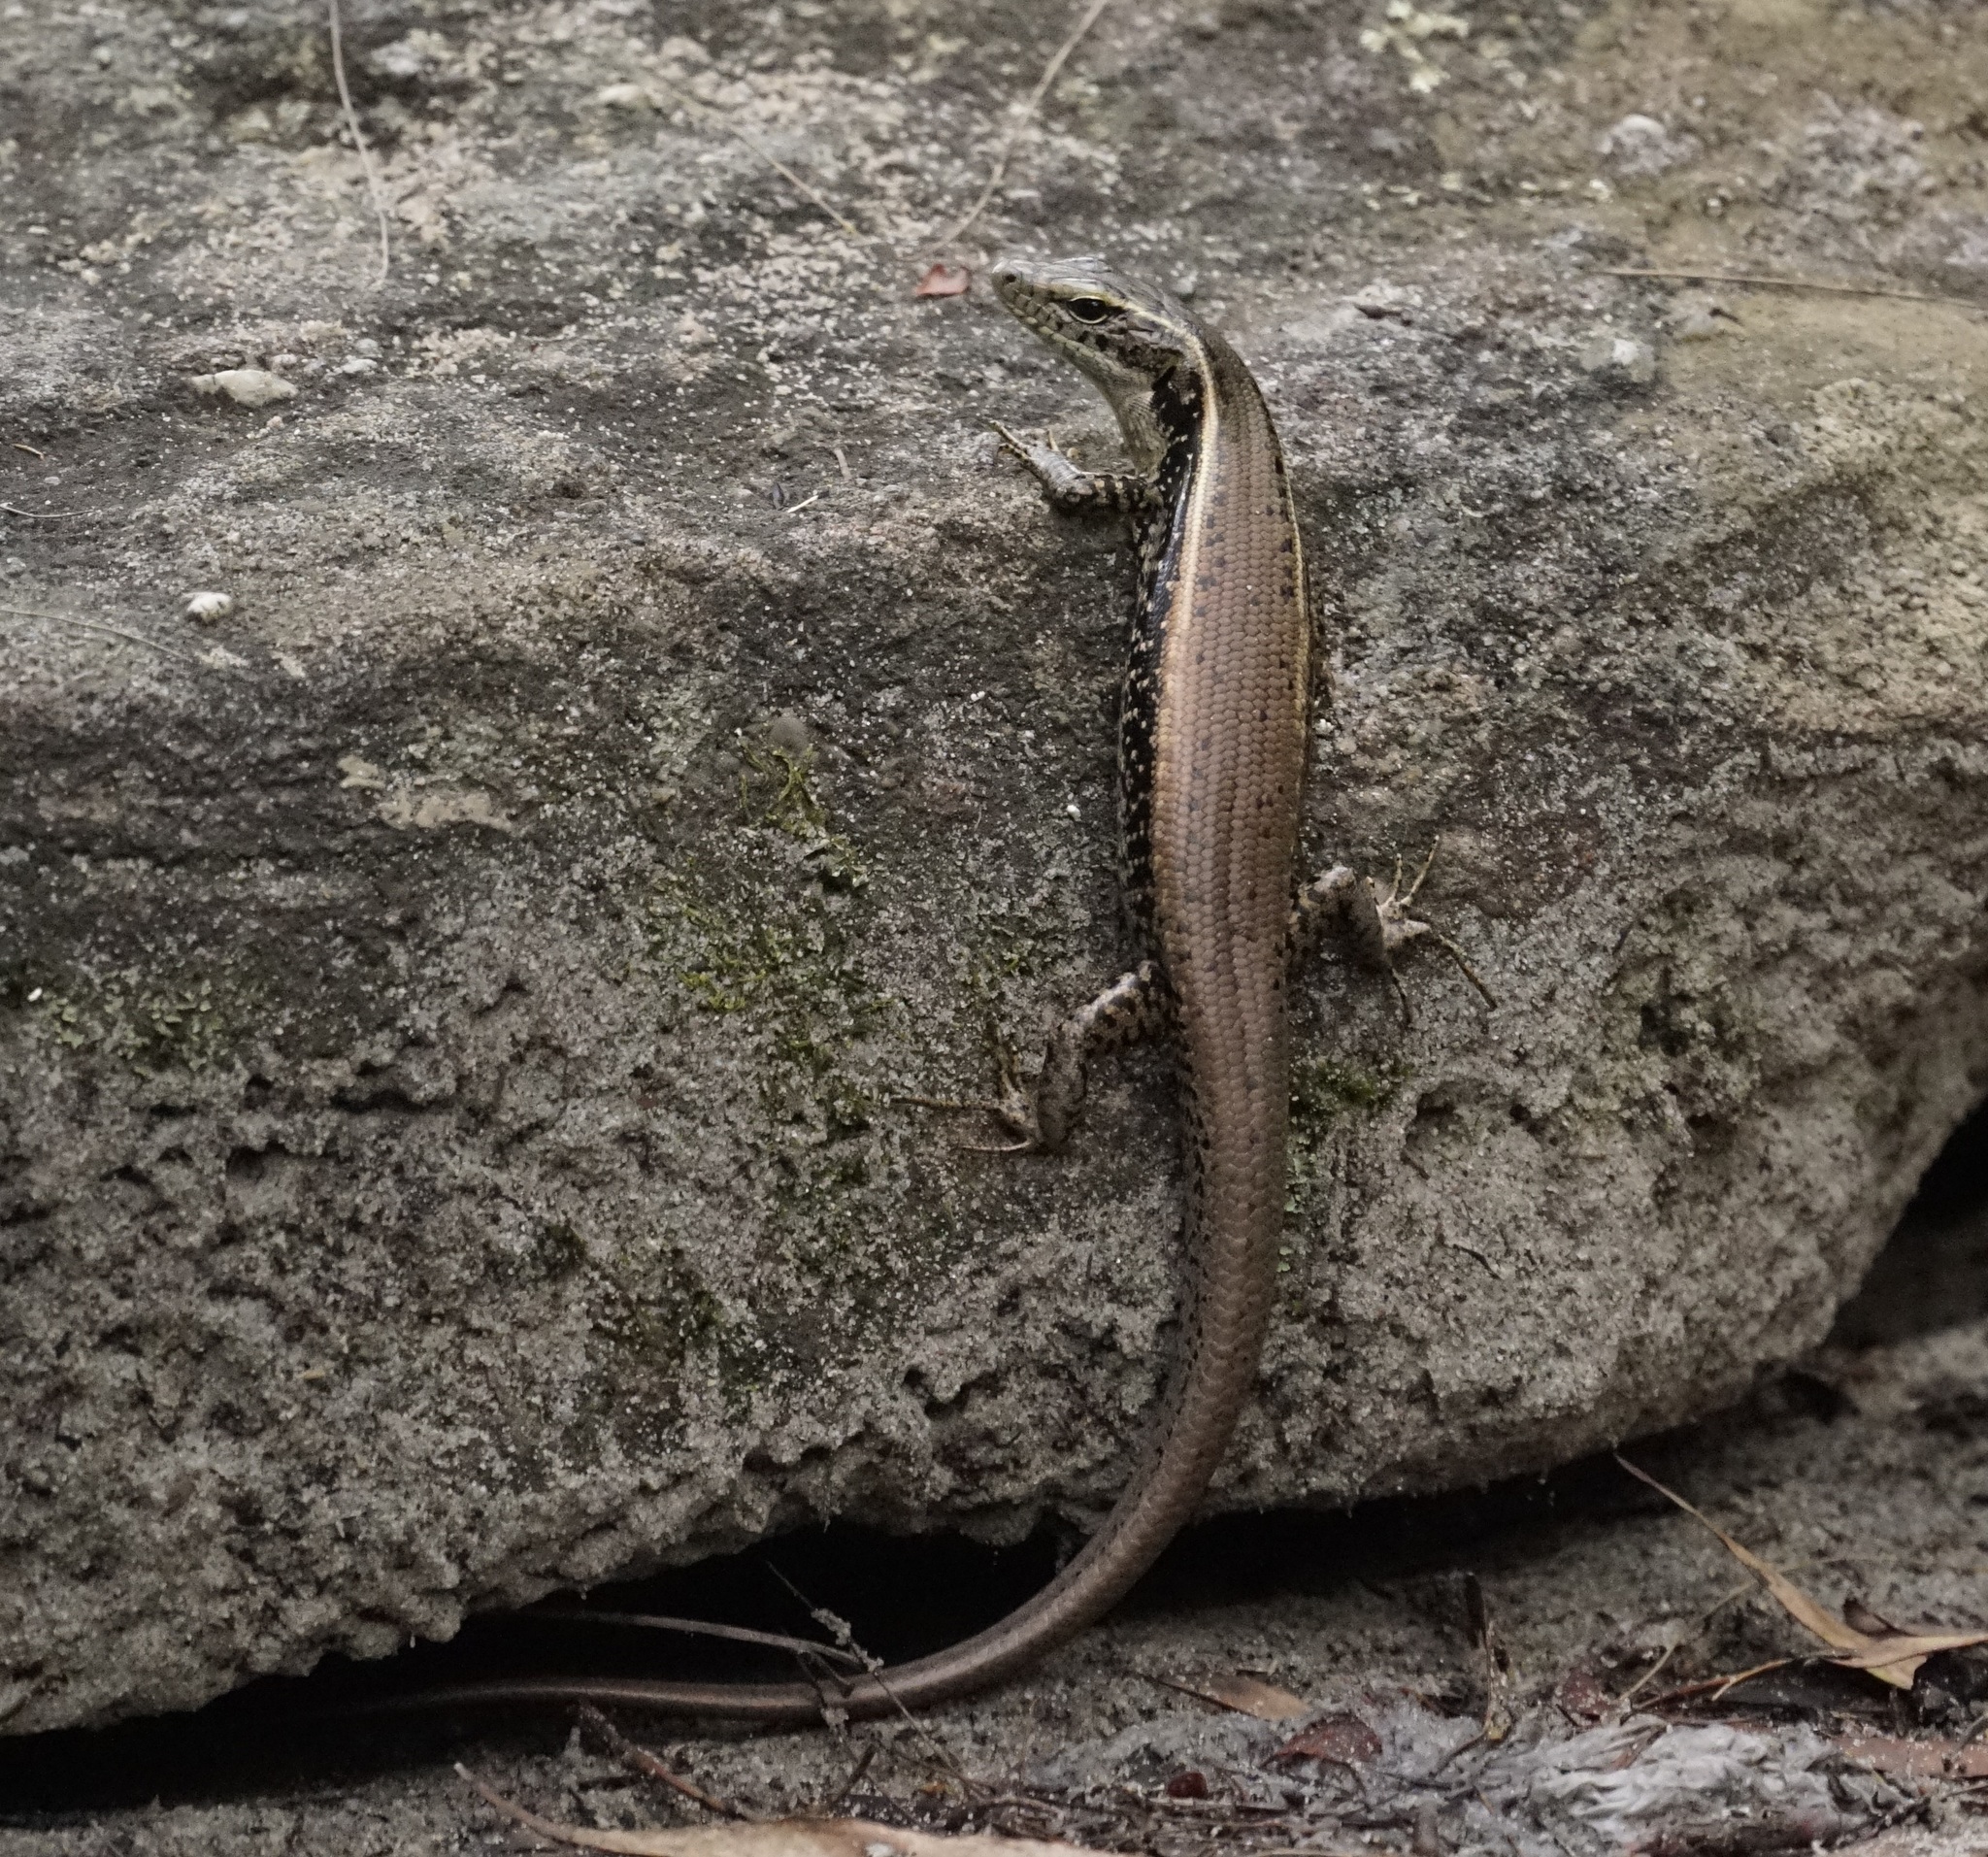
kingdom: Animalia
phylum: Chordata
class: Squamata
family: Scincidae
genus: Eulamprus
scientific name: Eulamprus quoyii
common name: Eastern water skink
